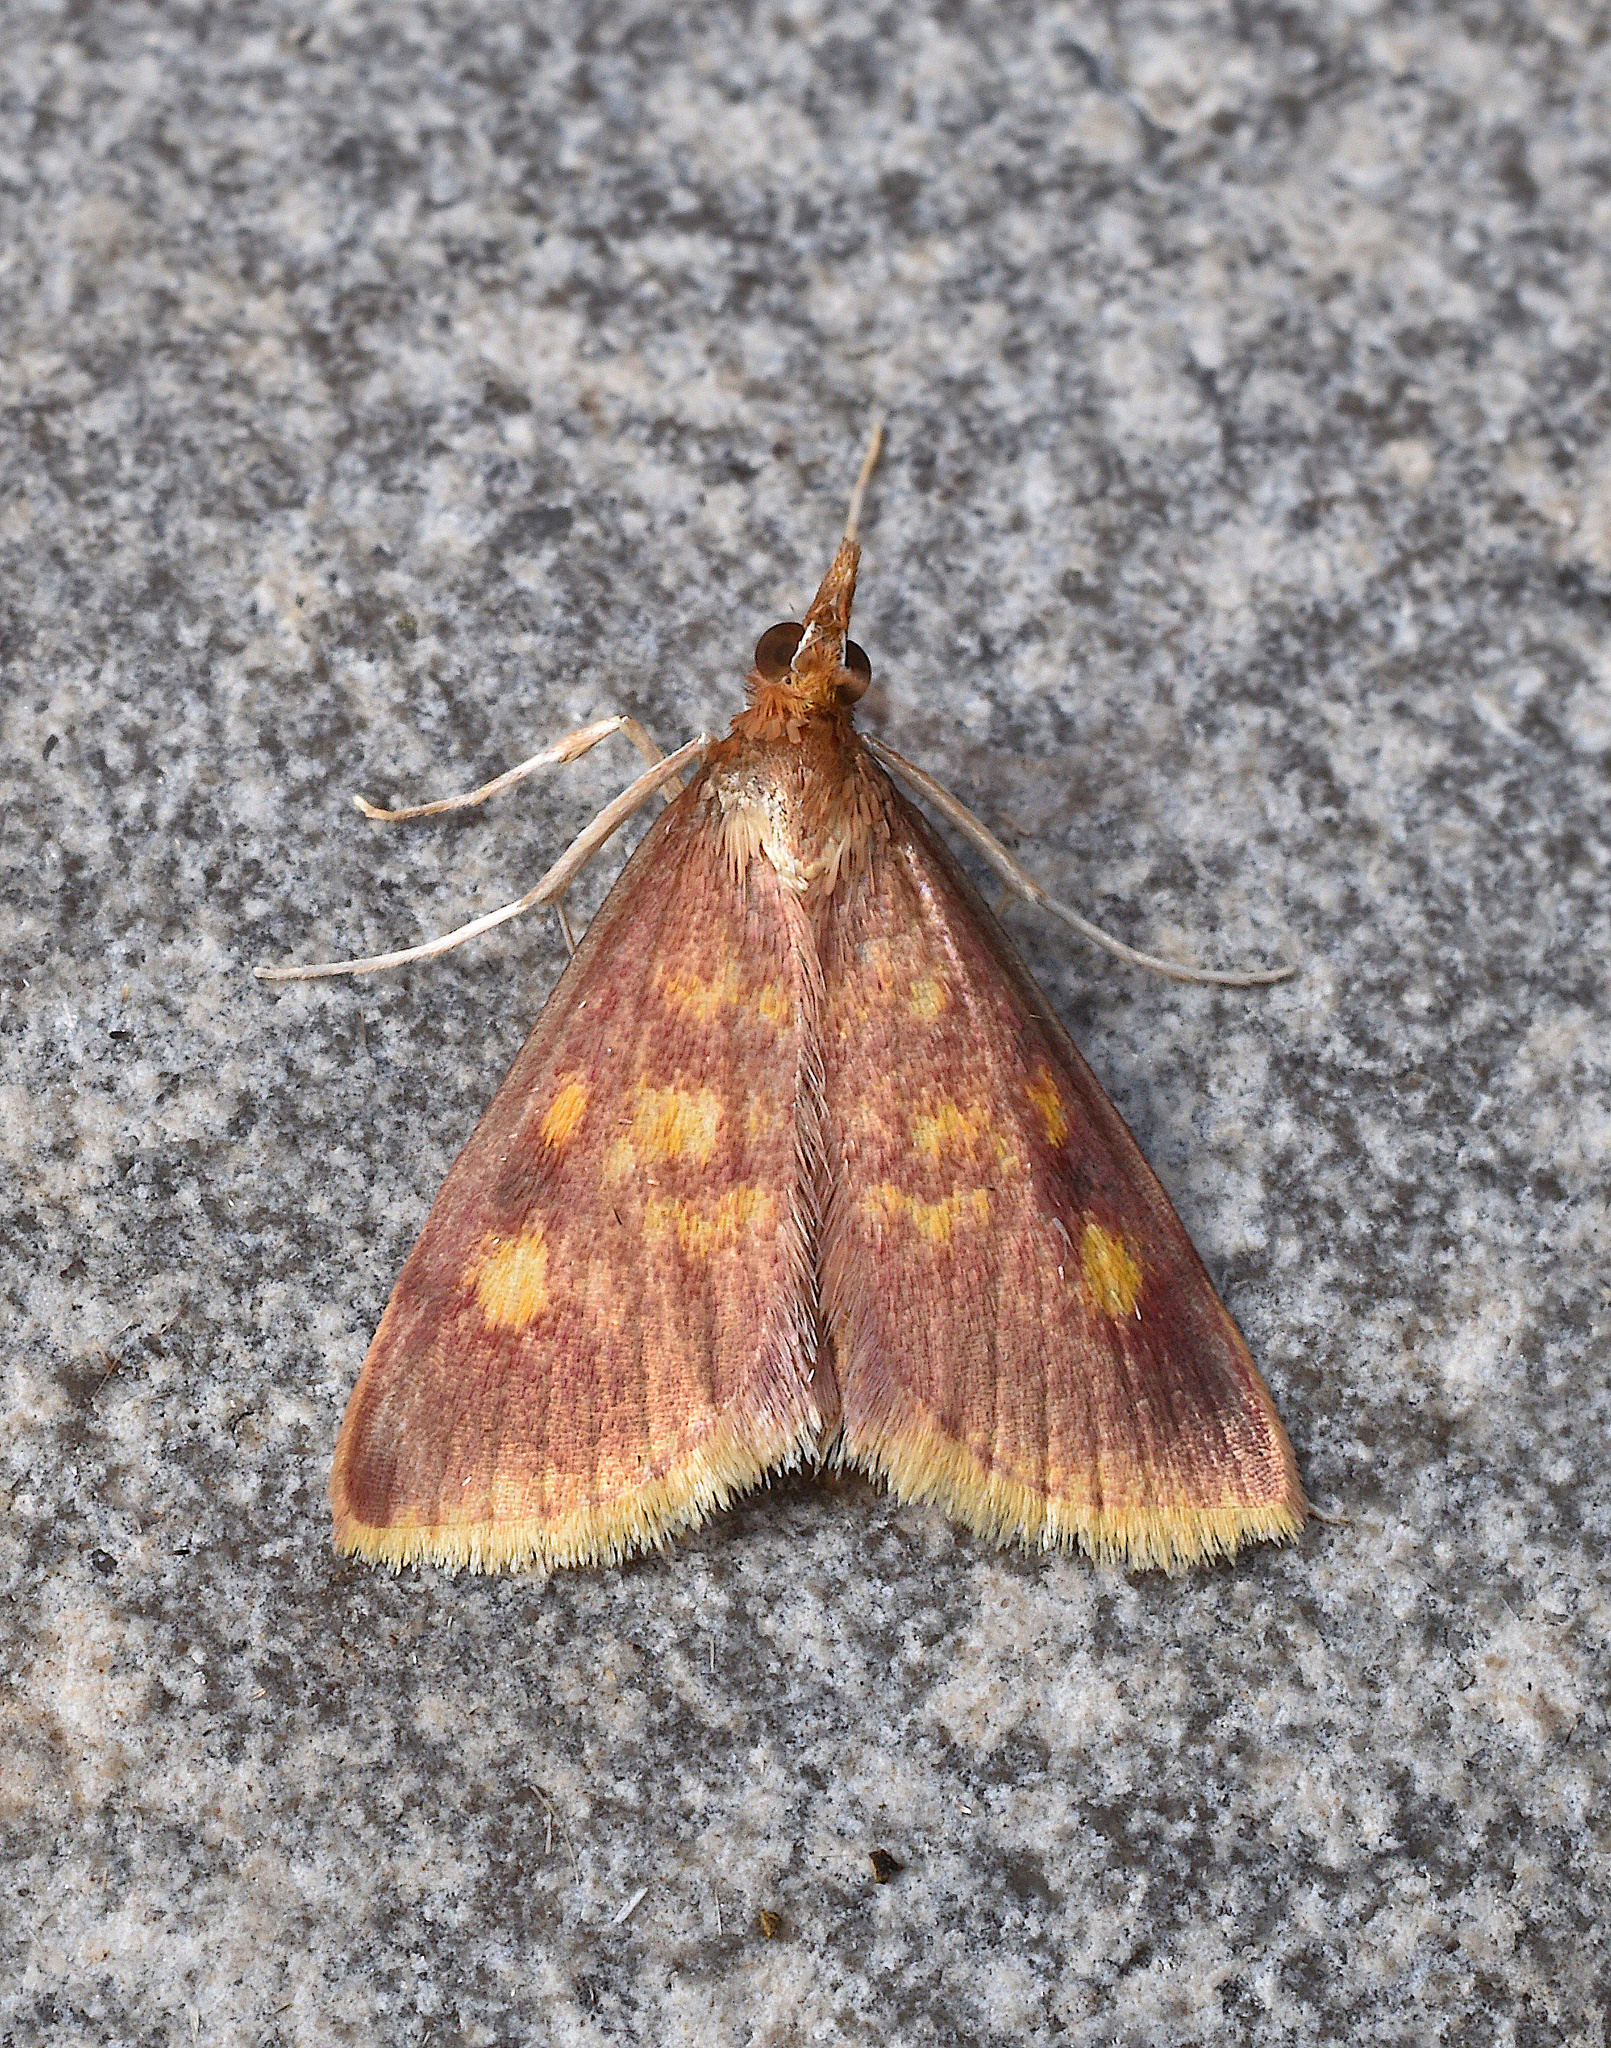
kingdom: Animalia
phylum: Arthropoda
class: Insecta
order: Lepidoptera
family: Crambidae
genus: Pyrausta
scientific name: Pyrausta acrionalis
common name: Mint-loving pyrausta moth
